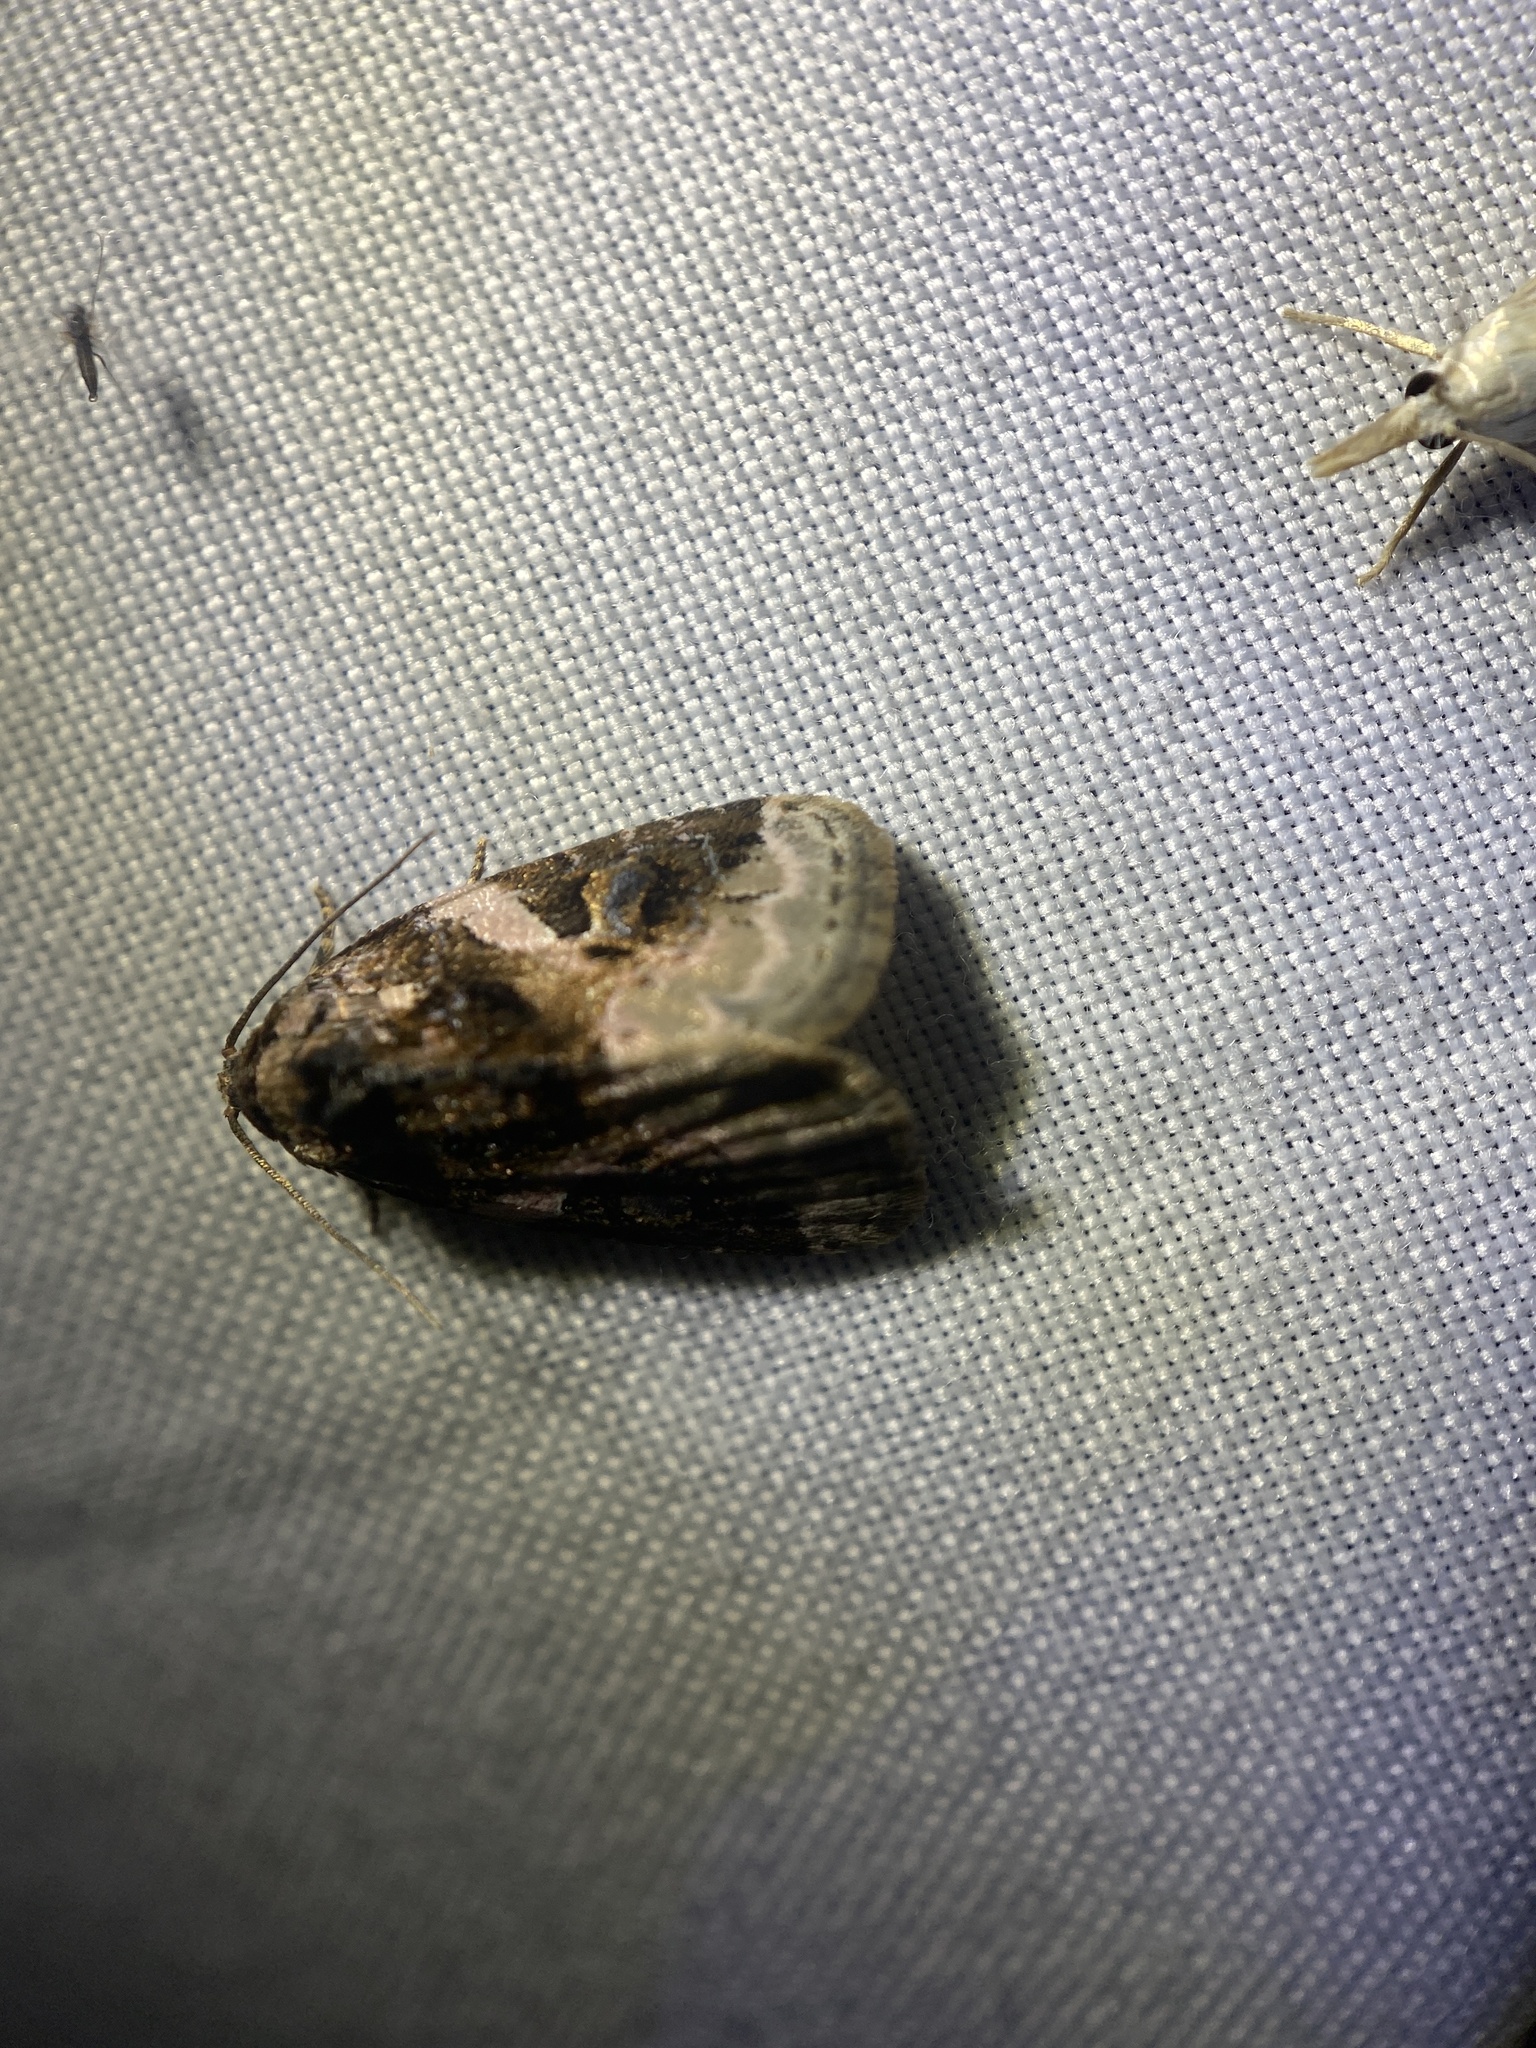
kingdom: Animalia
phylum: Arthropoda
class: Insecta
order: Lepidoptera
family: Noctuidae
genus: Pseudeustrotia
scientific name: Pseudeustrotia carneola
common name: Pink-barred lithacodia moth
